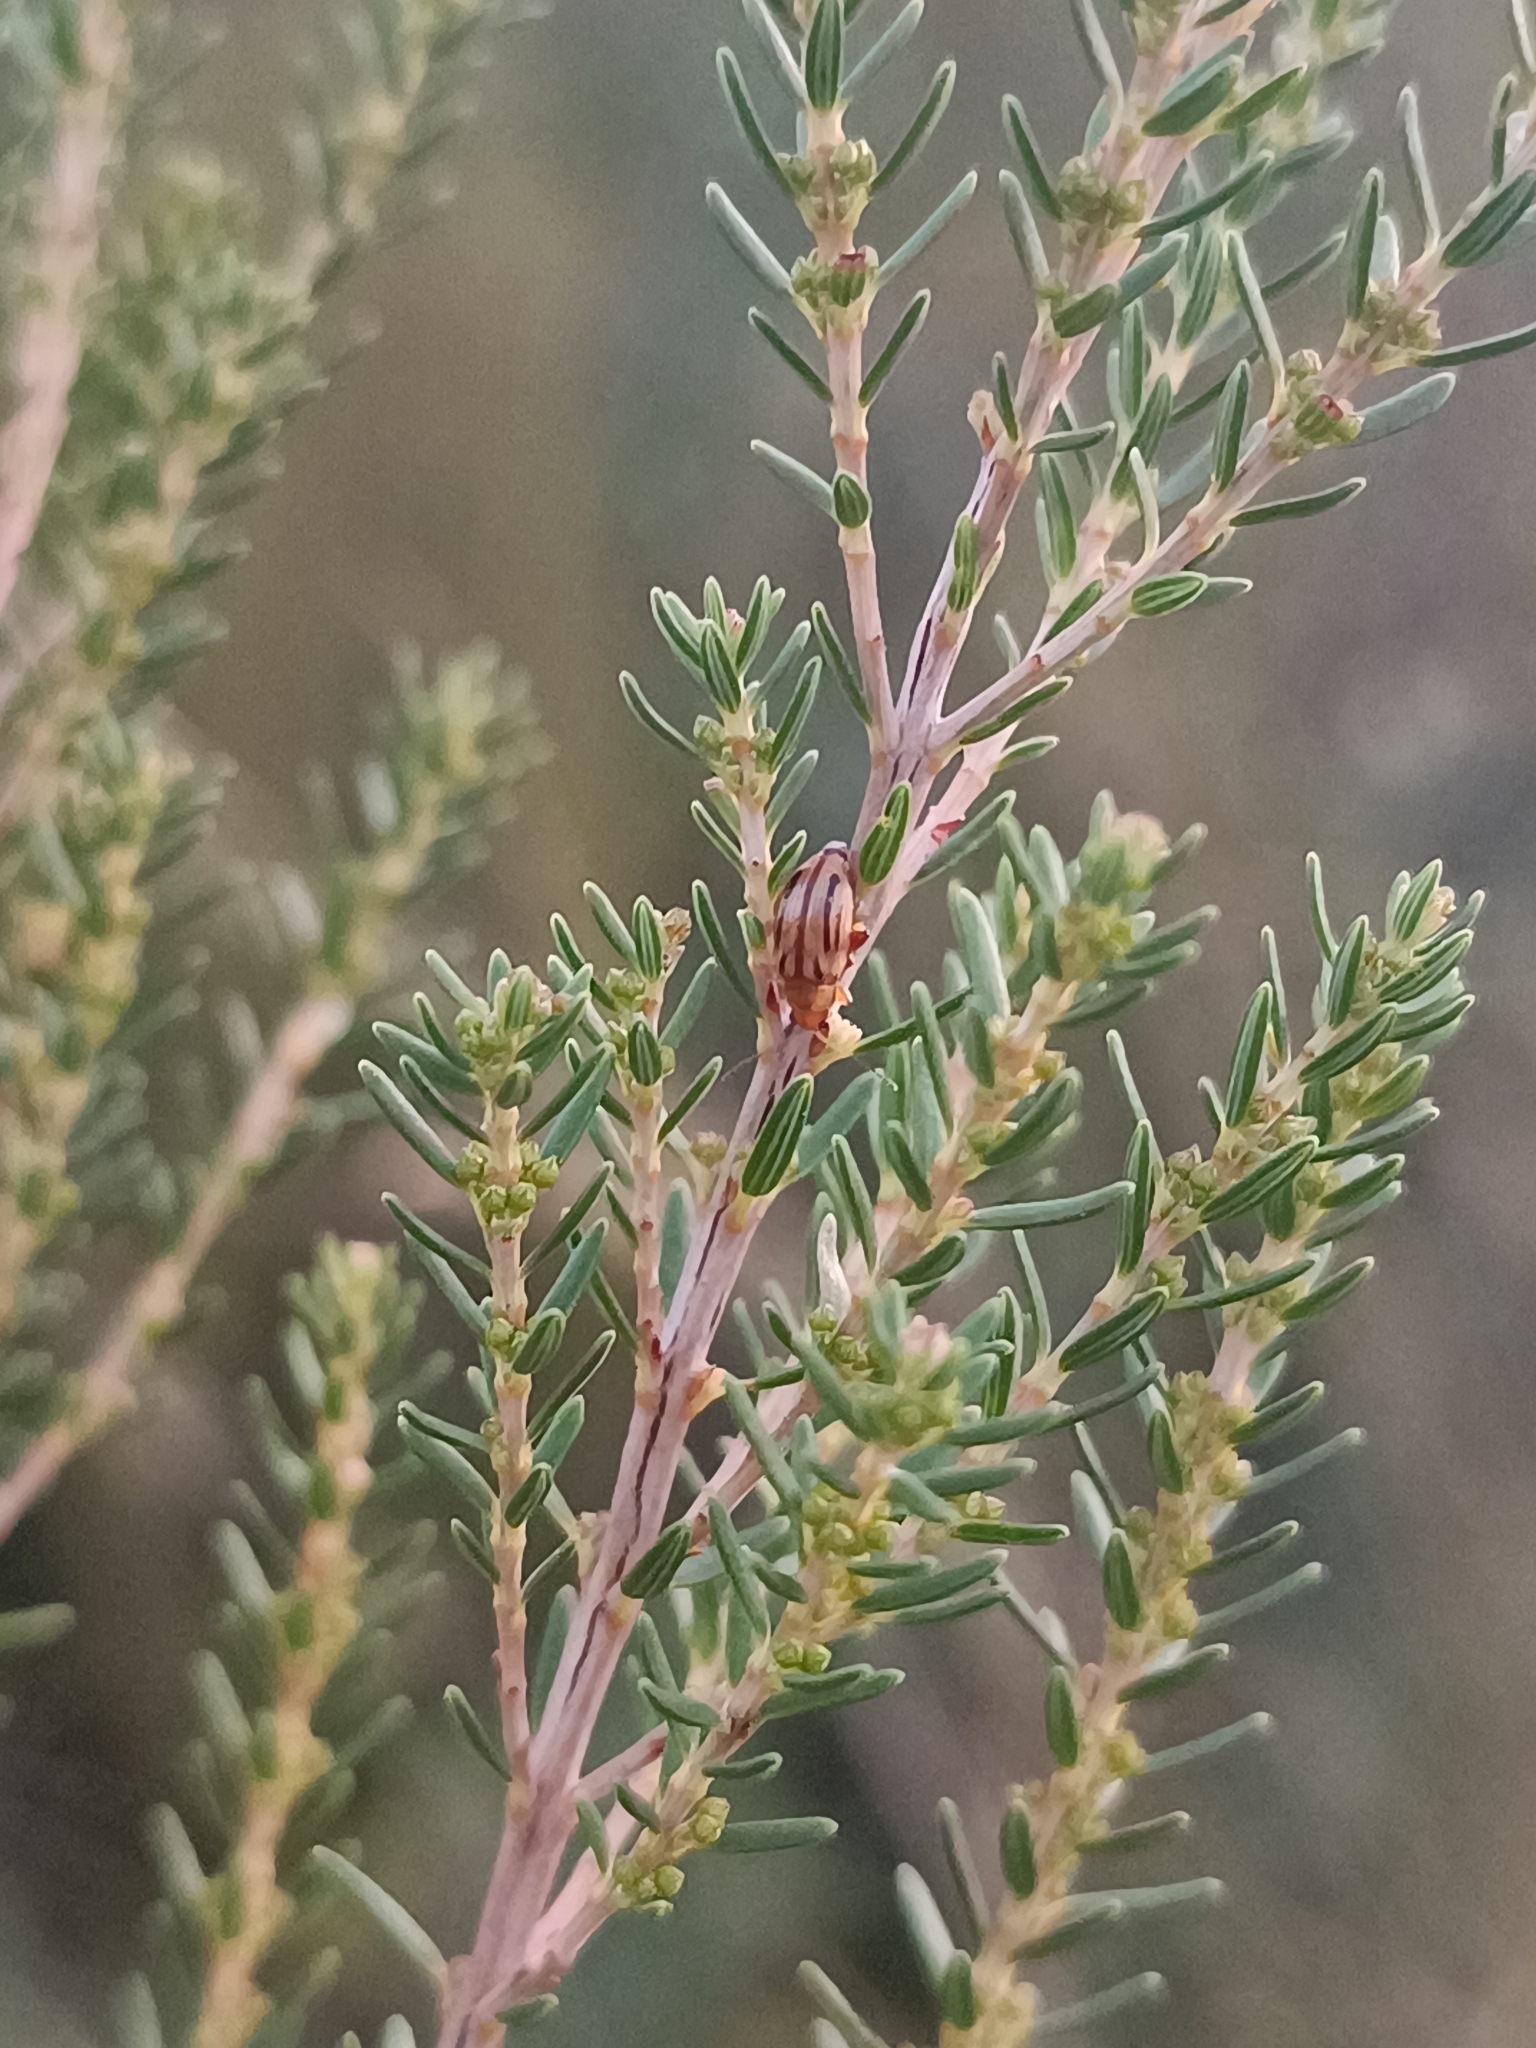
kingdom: Animalia
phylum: Arthropoda
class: Insecta
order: Coleoptera
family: Chrysomelidae
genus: Arrhenocoela
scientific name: Arrhenocoela lineata
